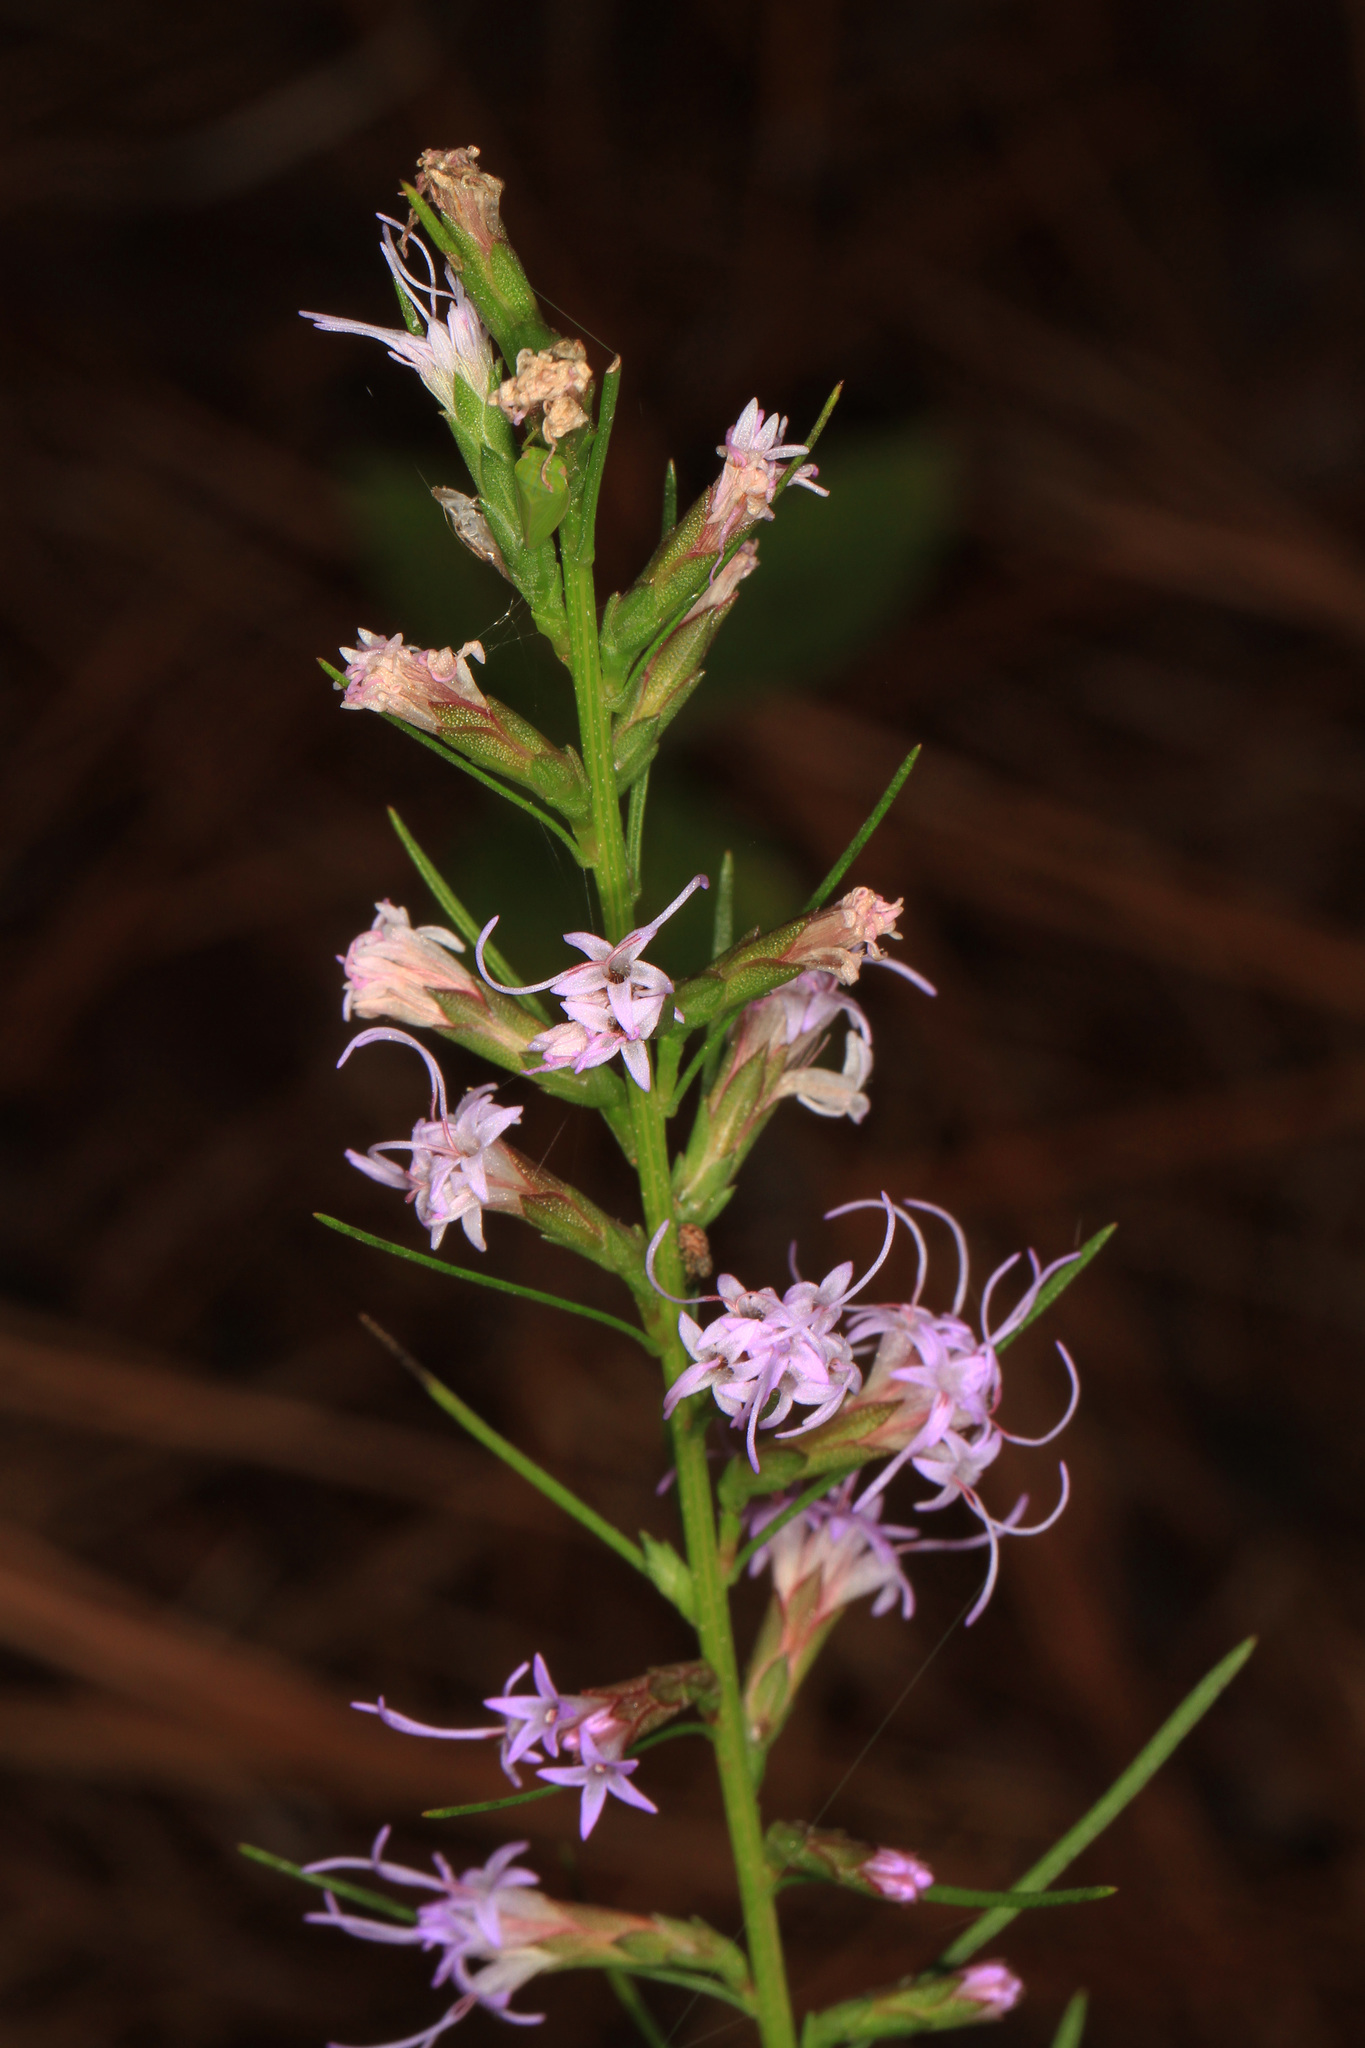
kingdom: Plantae
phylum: Tracheophyta
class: Magnoliopsida
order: Asterales
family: Asteraceae
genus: Liatris
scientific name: Liatris virgata
